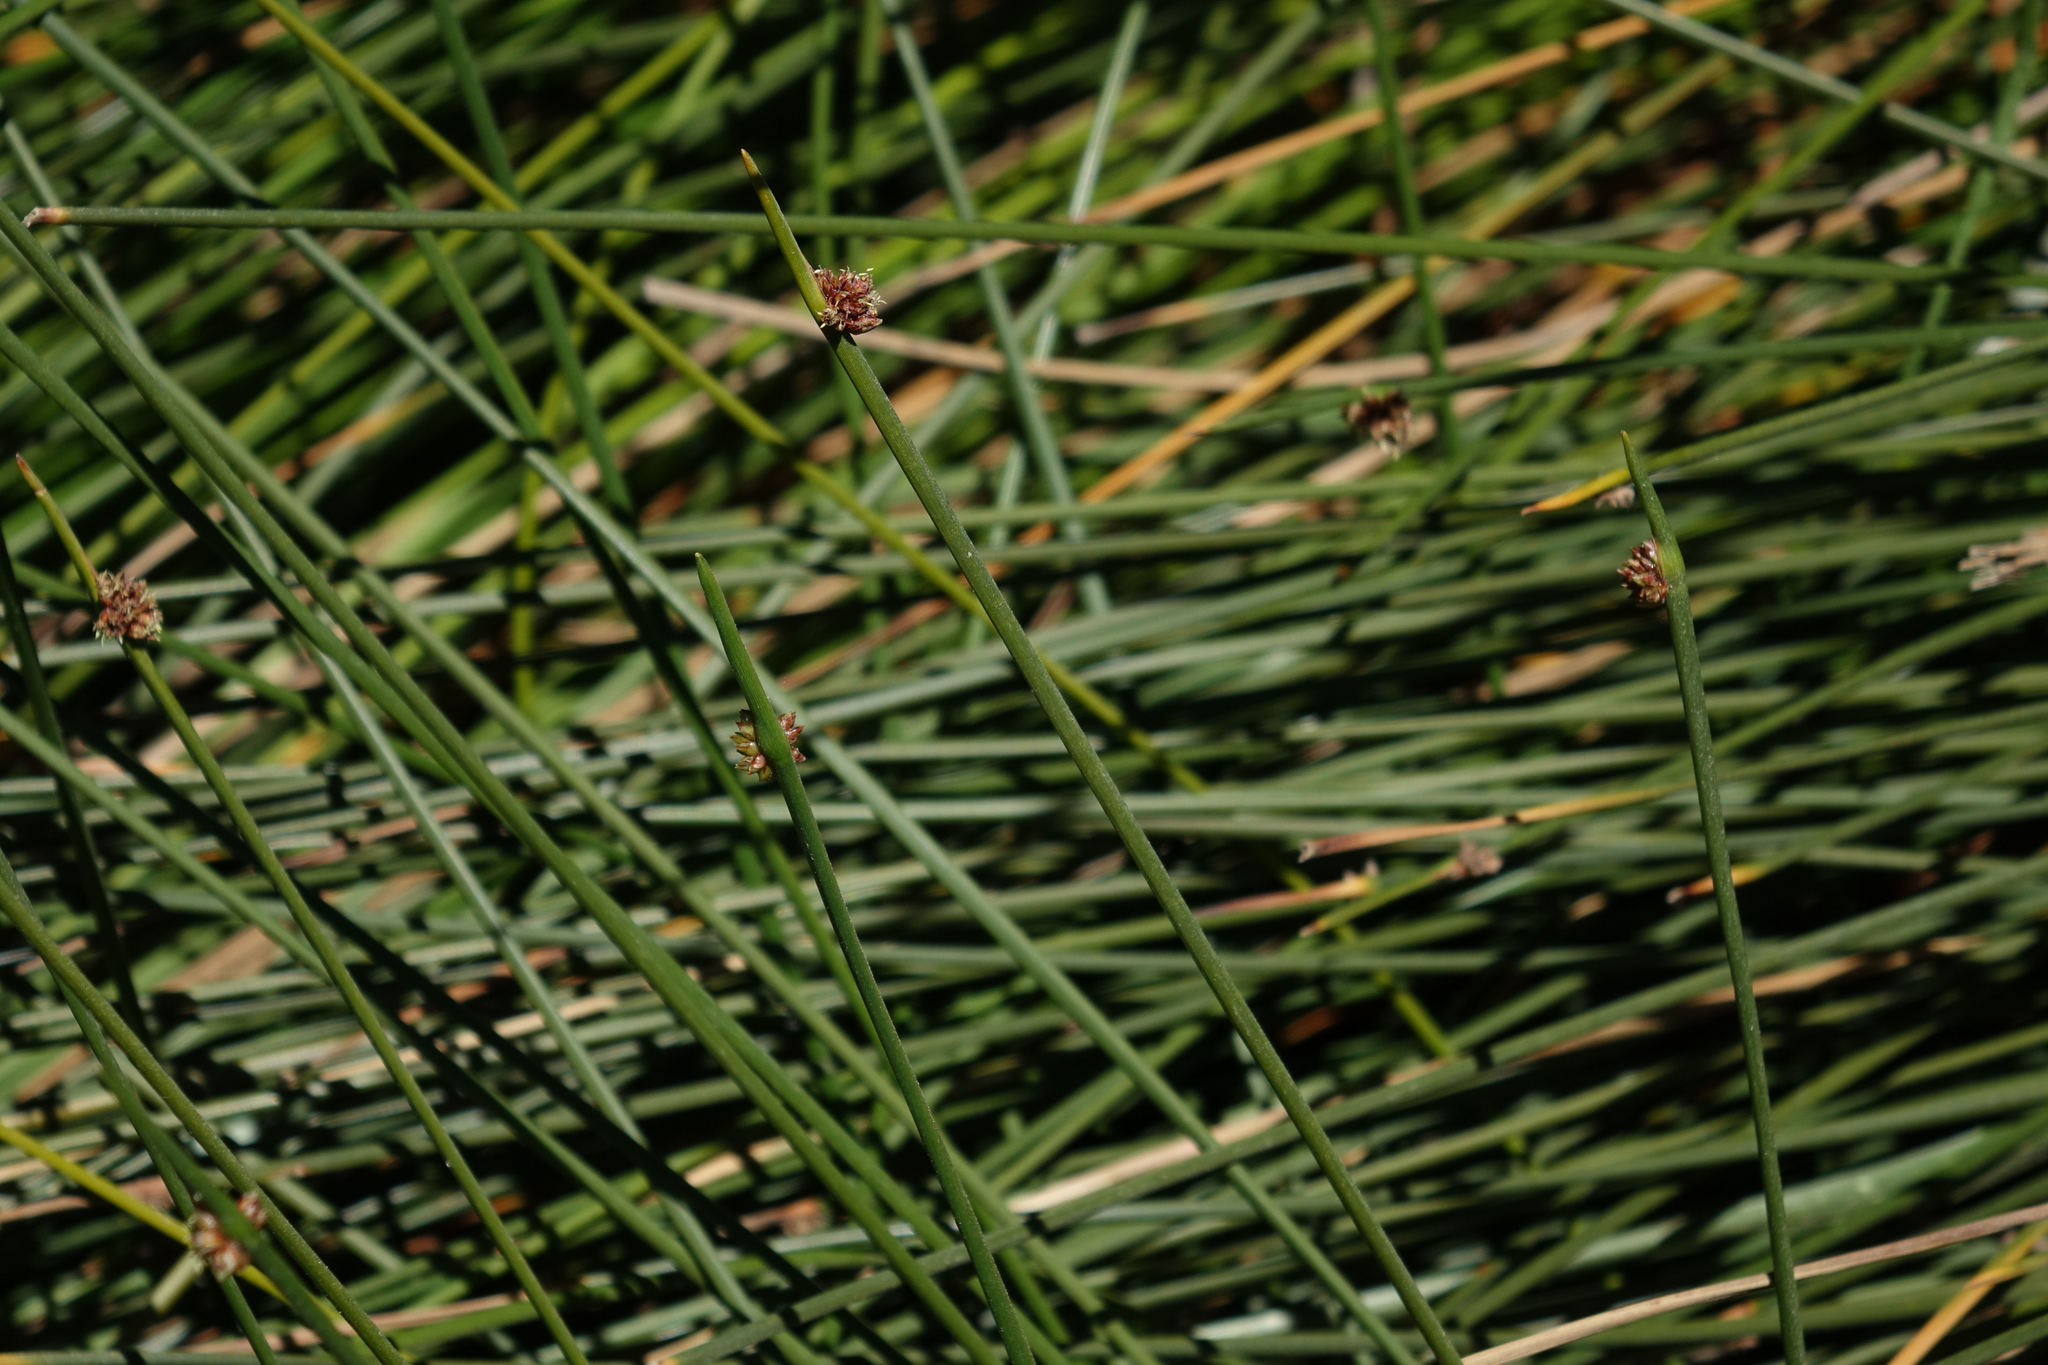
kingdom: Plantae
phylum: Tracheophyta
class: Liliopsida
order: Poales
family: Cyperaceae
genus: Ficinia
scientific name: Ficinia nodosa
